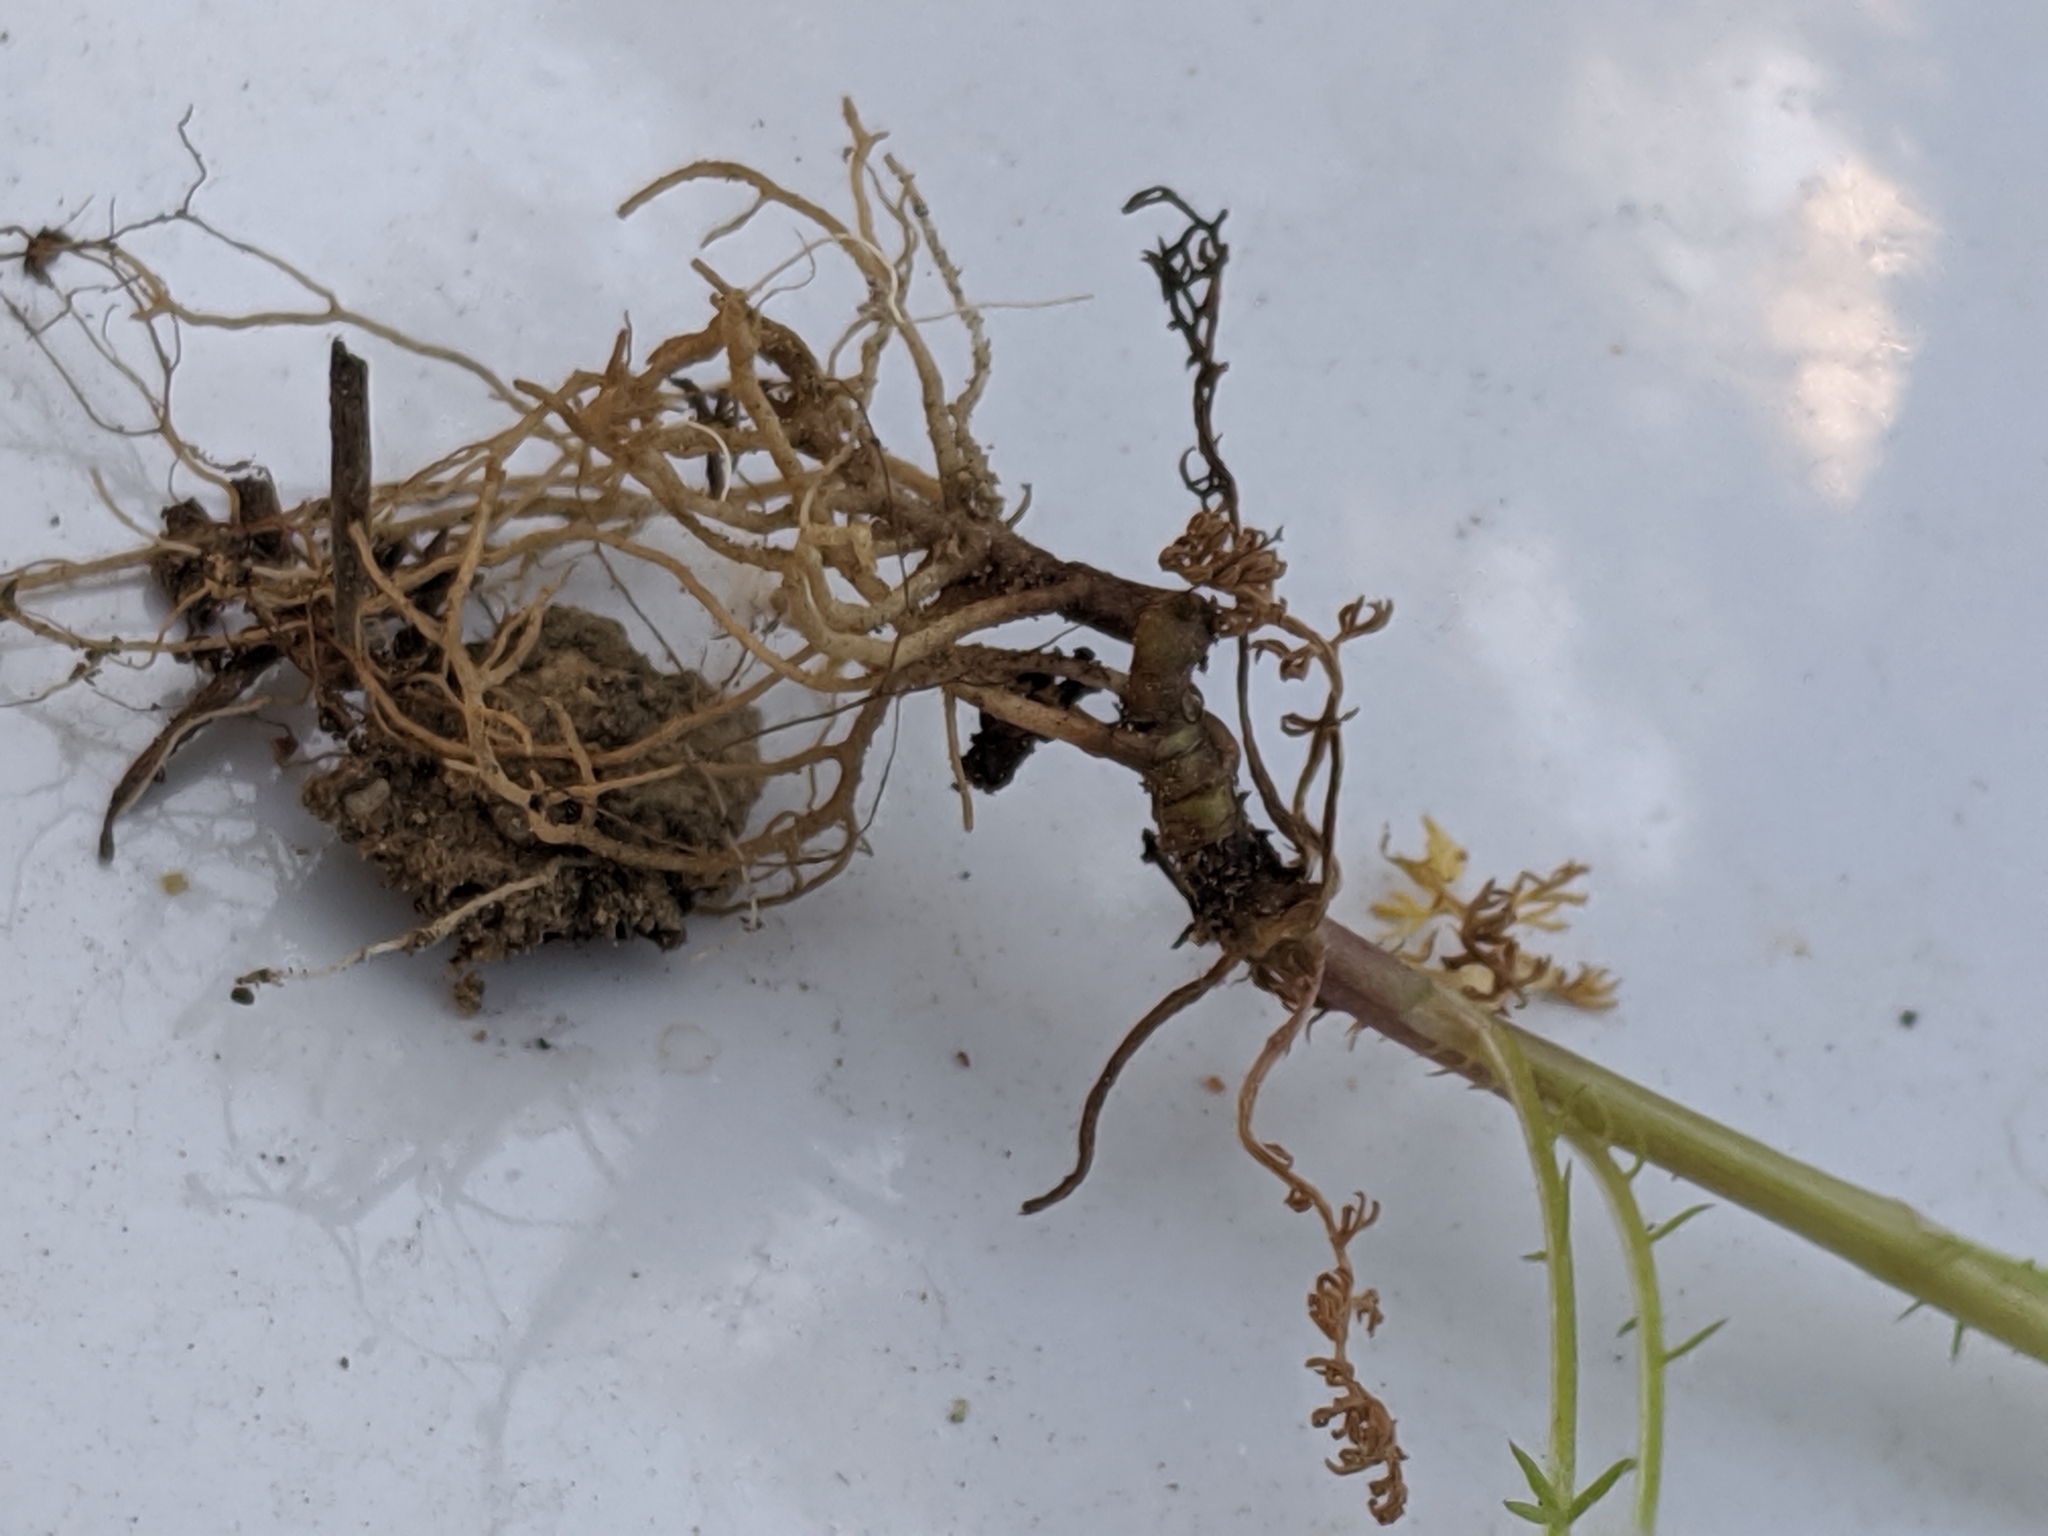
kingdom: Plantae
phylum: Tracheophyta
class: Magnoliopsida
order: Asterales
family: Asteraceae
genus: Tripleurospermum
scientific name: Tripleurospermum inodorum
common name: Scentless mayweed
